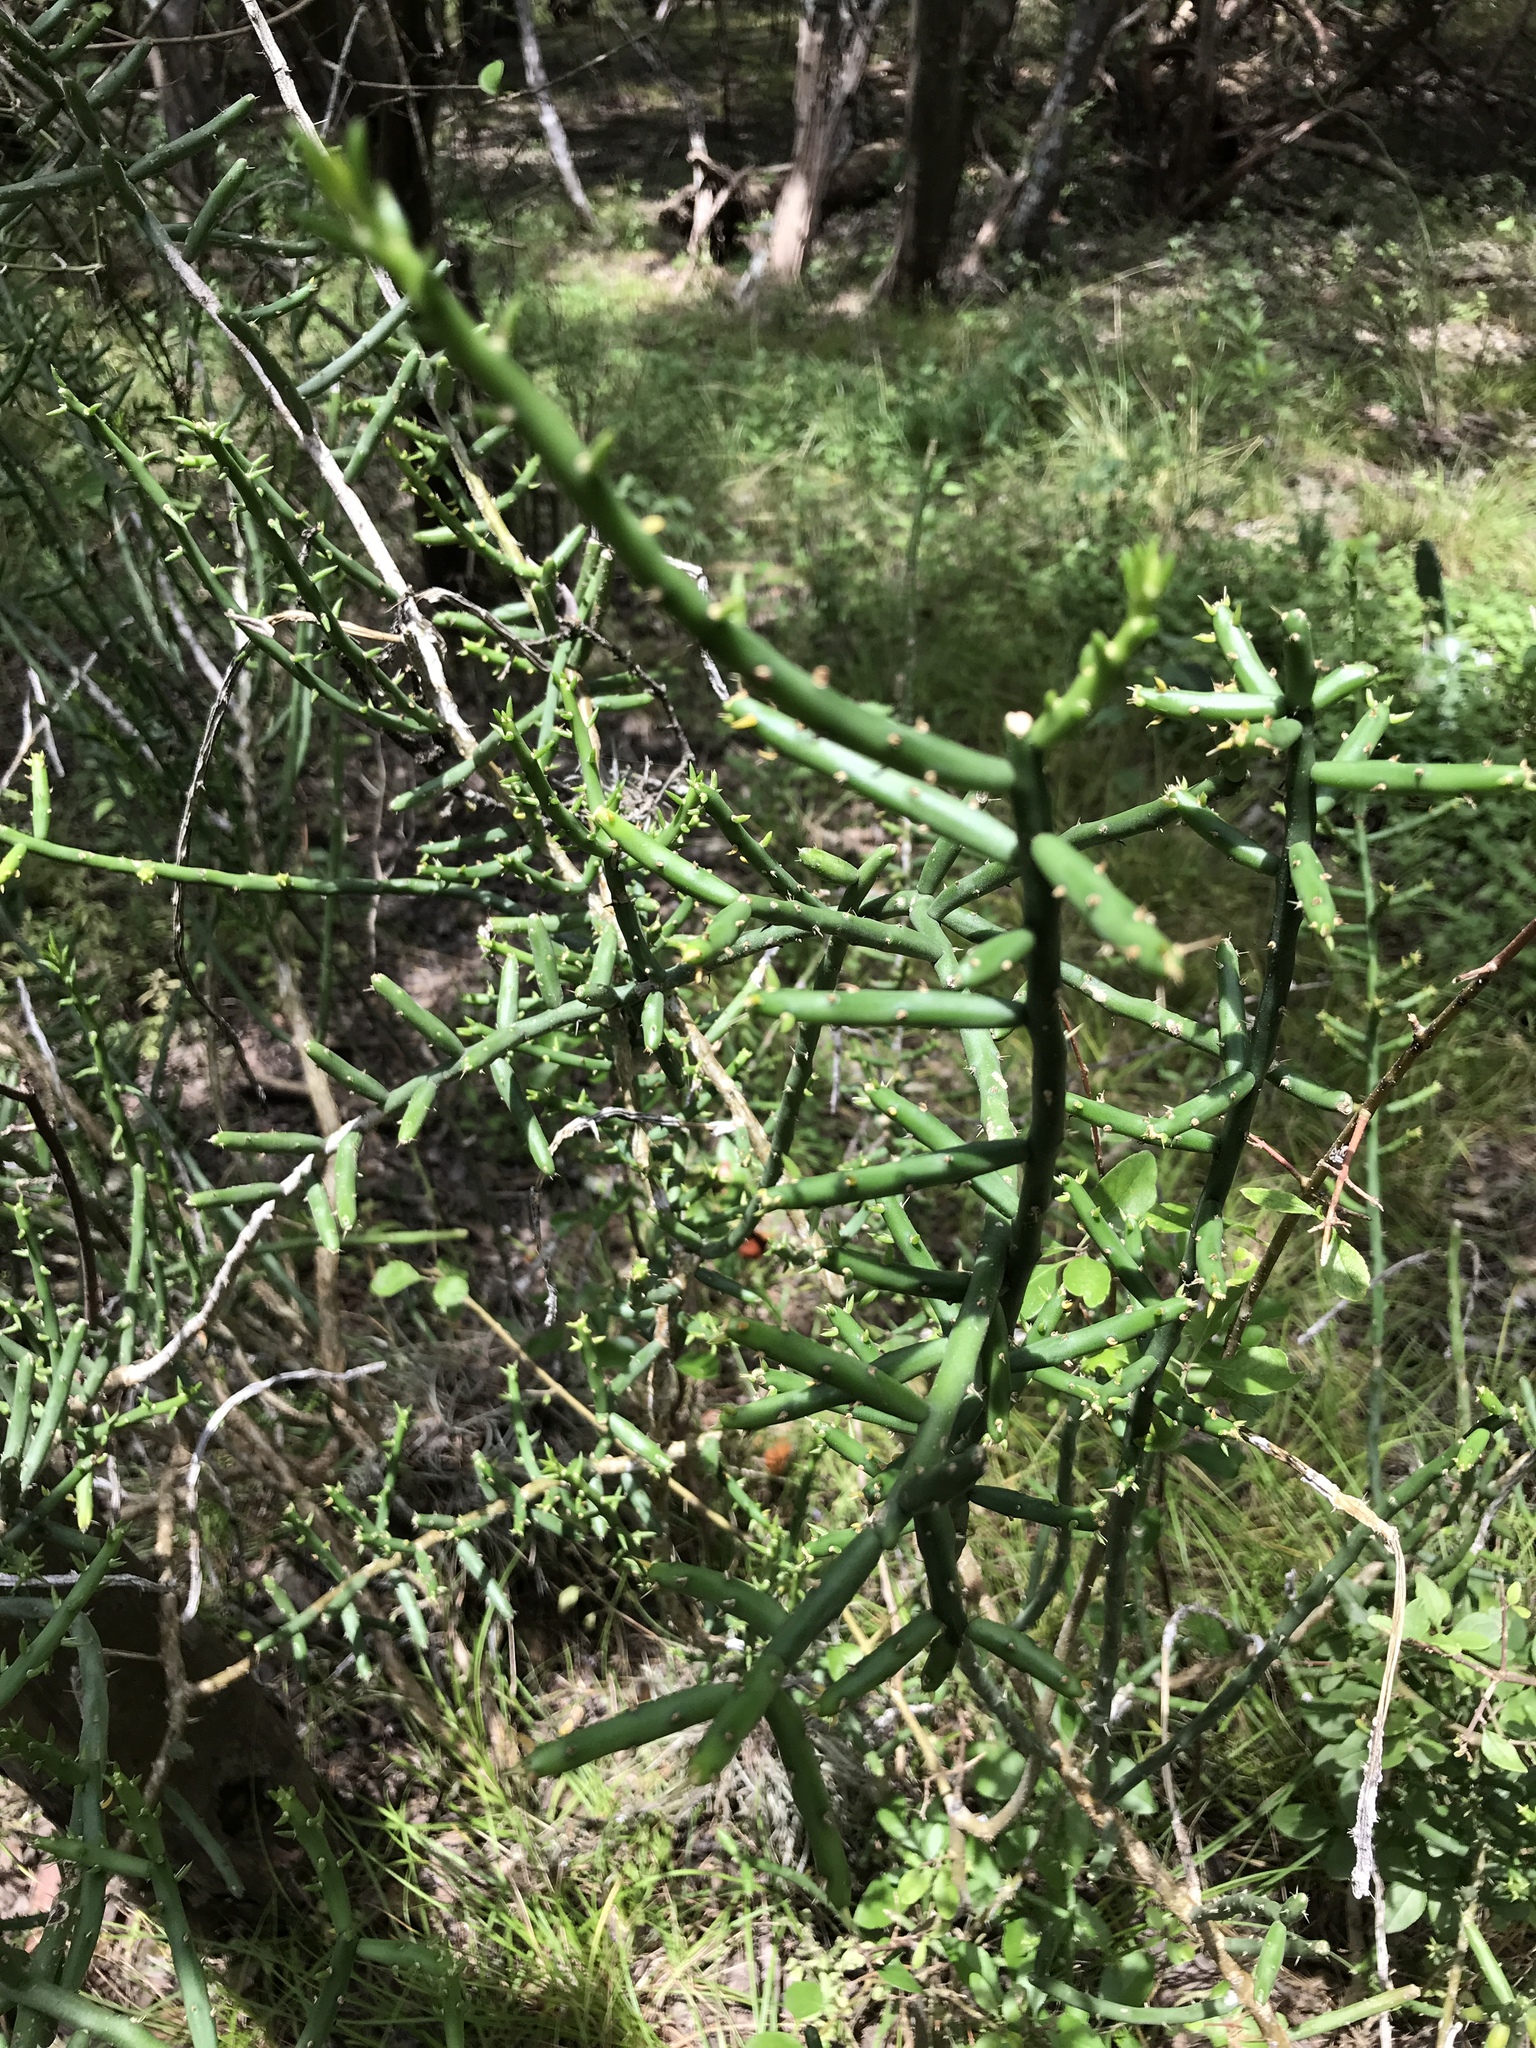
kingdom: Plantae
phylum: Tracheophyta
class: Magnoliopsida
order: Caryophyllales
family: Cactaceae
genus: Cylindropuntia
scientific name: Cylindropuntia leptocaulis
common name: Christmas cactus
